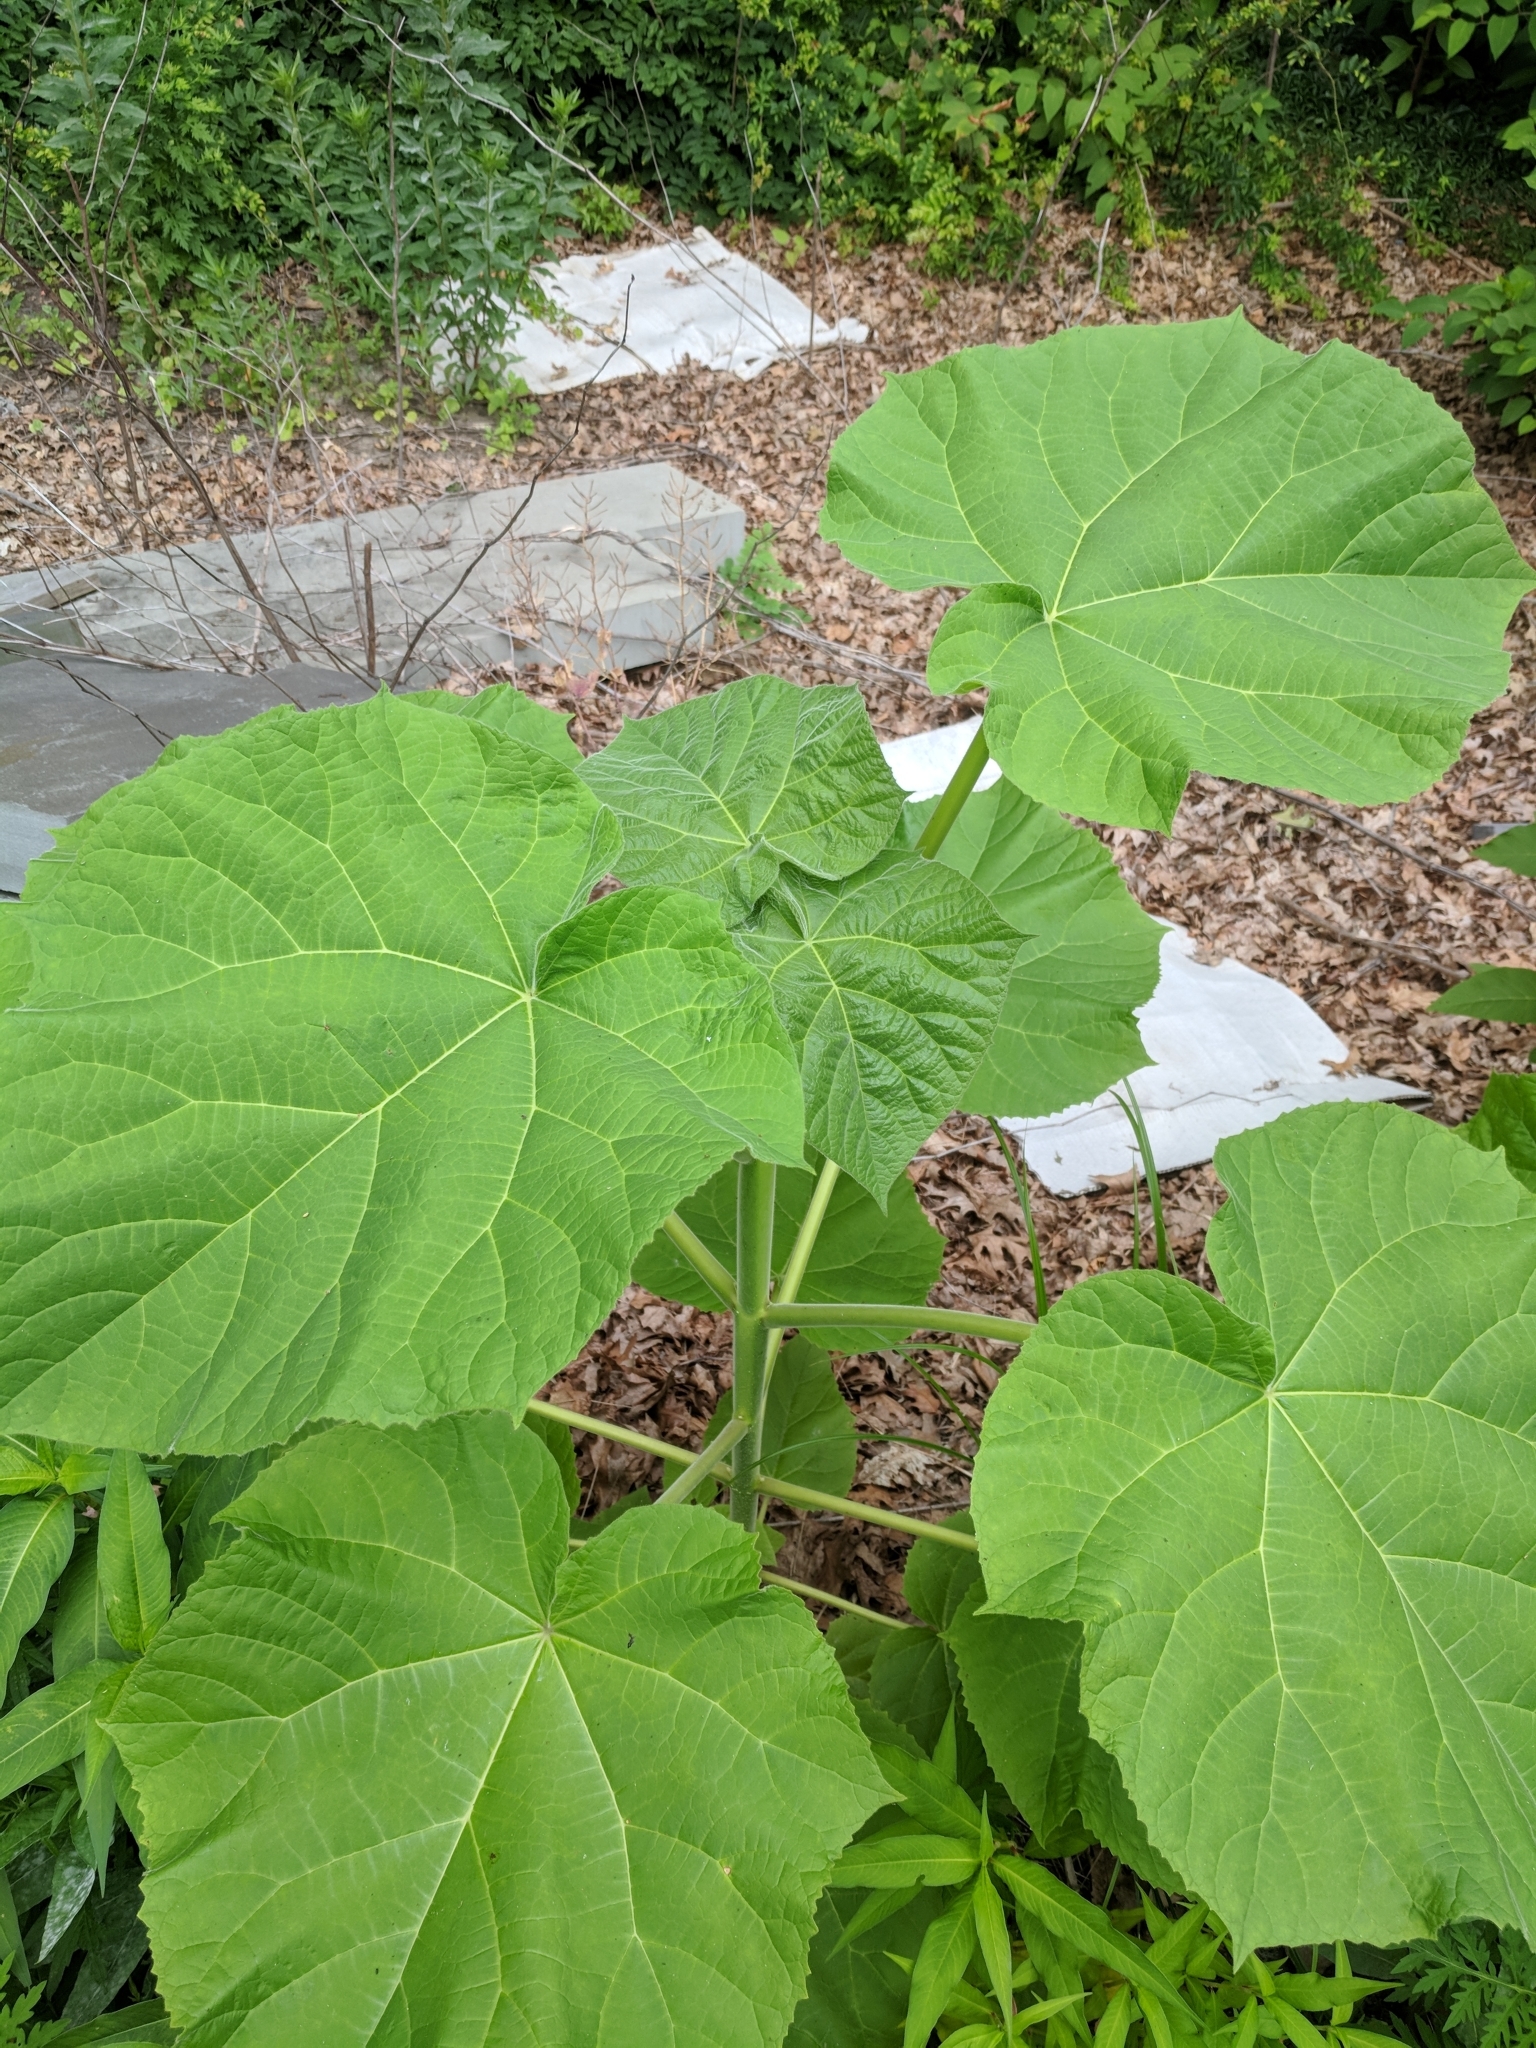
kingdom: Plantae
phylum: Tracheophyta
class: Magnoliopsida
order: Lamiales
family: Paulowniaceae
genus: Paulownia
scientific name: Paulownia tomentosa
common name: Foxglove-tree
